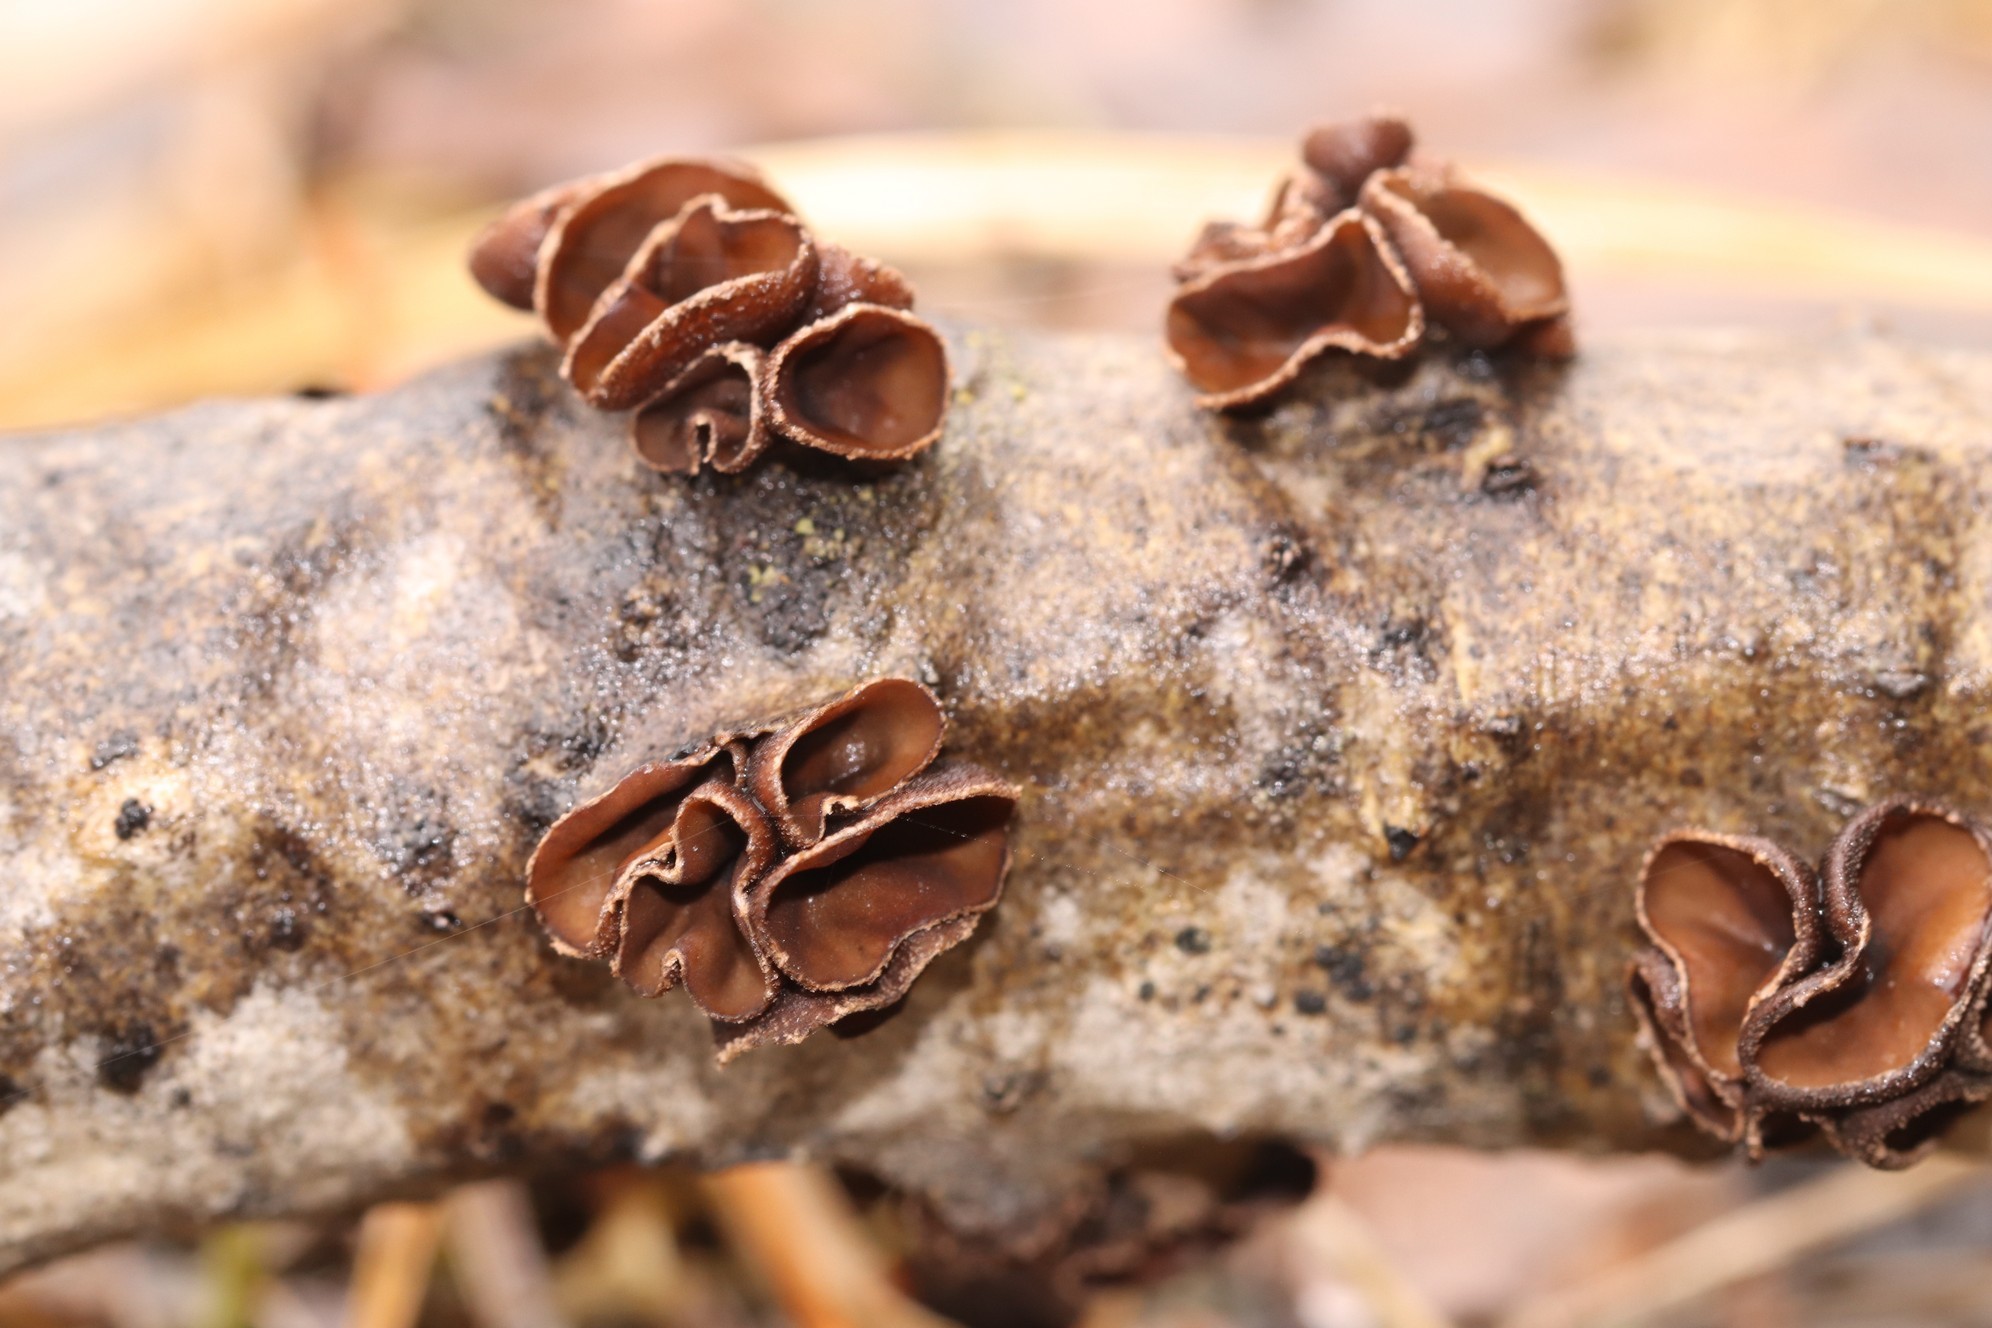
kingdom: Fungi
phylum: Ascomycota
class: Leotiomycetes
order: Helotiales
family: Sclerotiniaceae
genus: Sclerencoelia
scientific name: Sclerencoelia fascicularis
